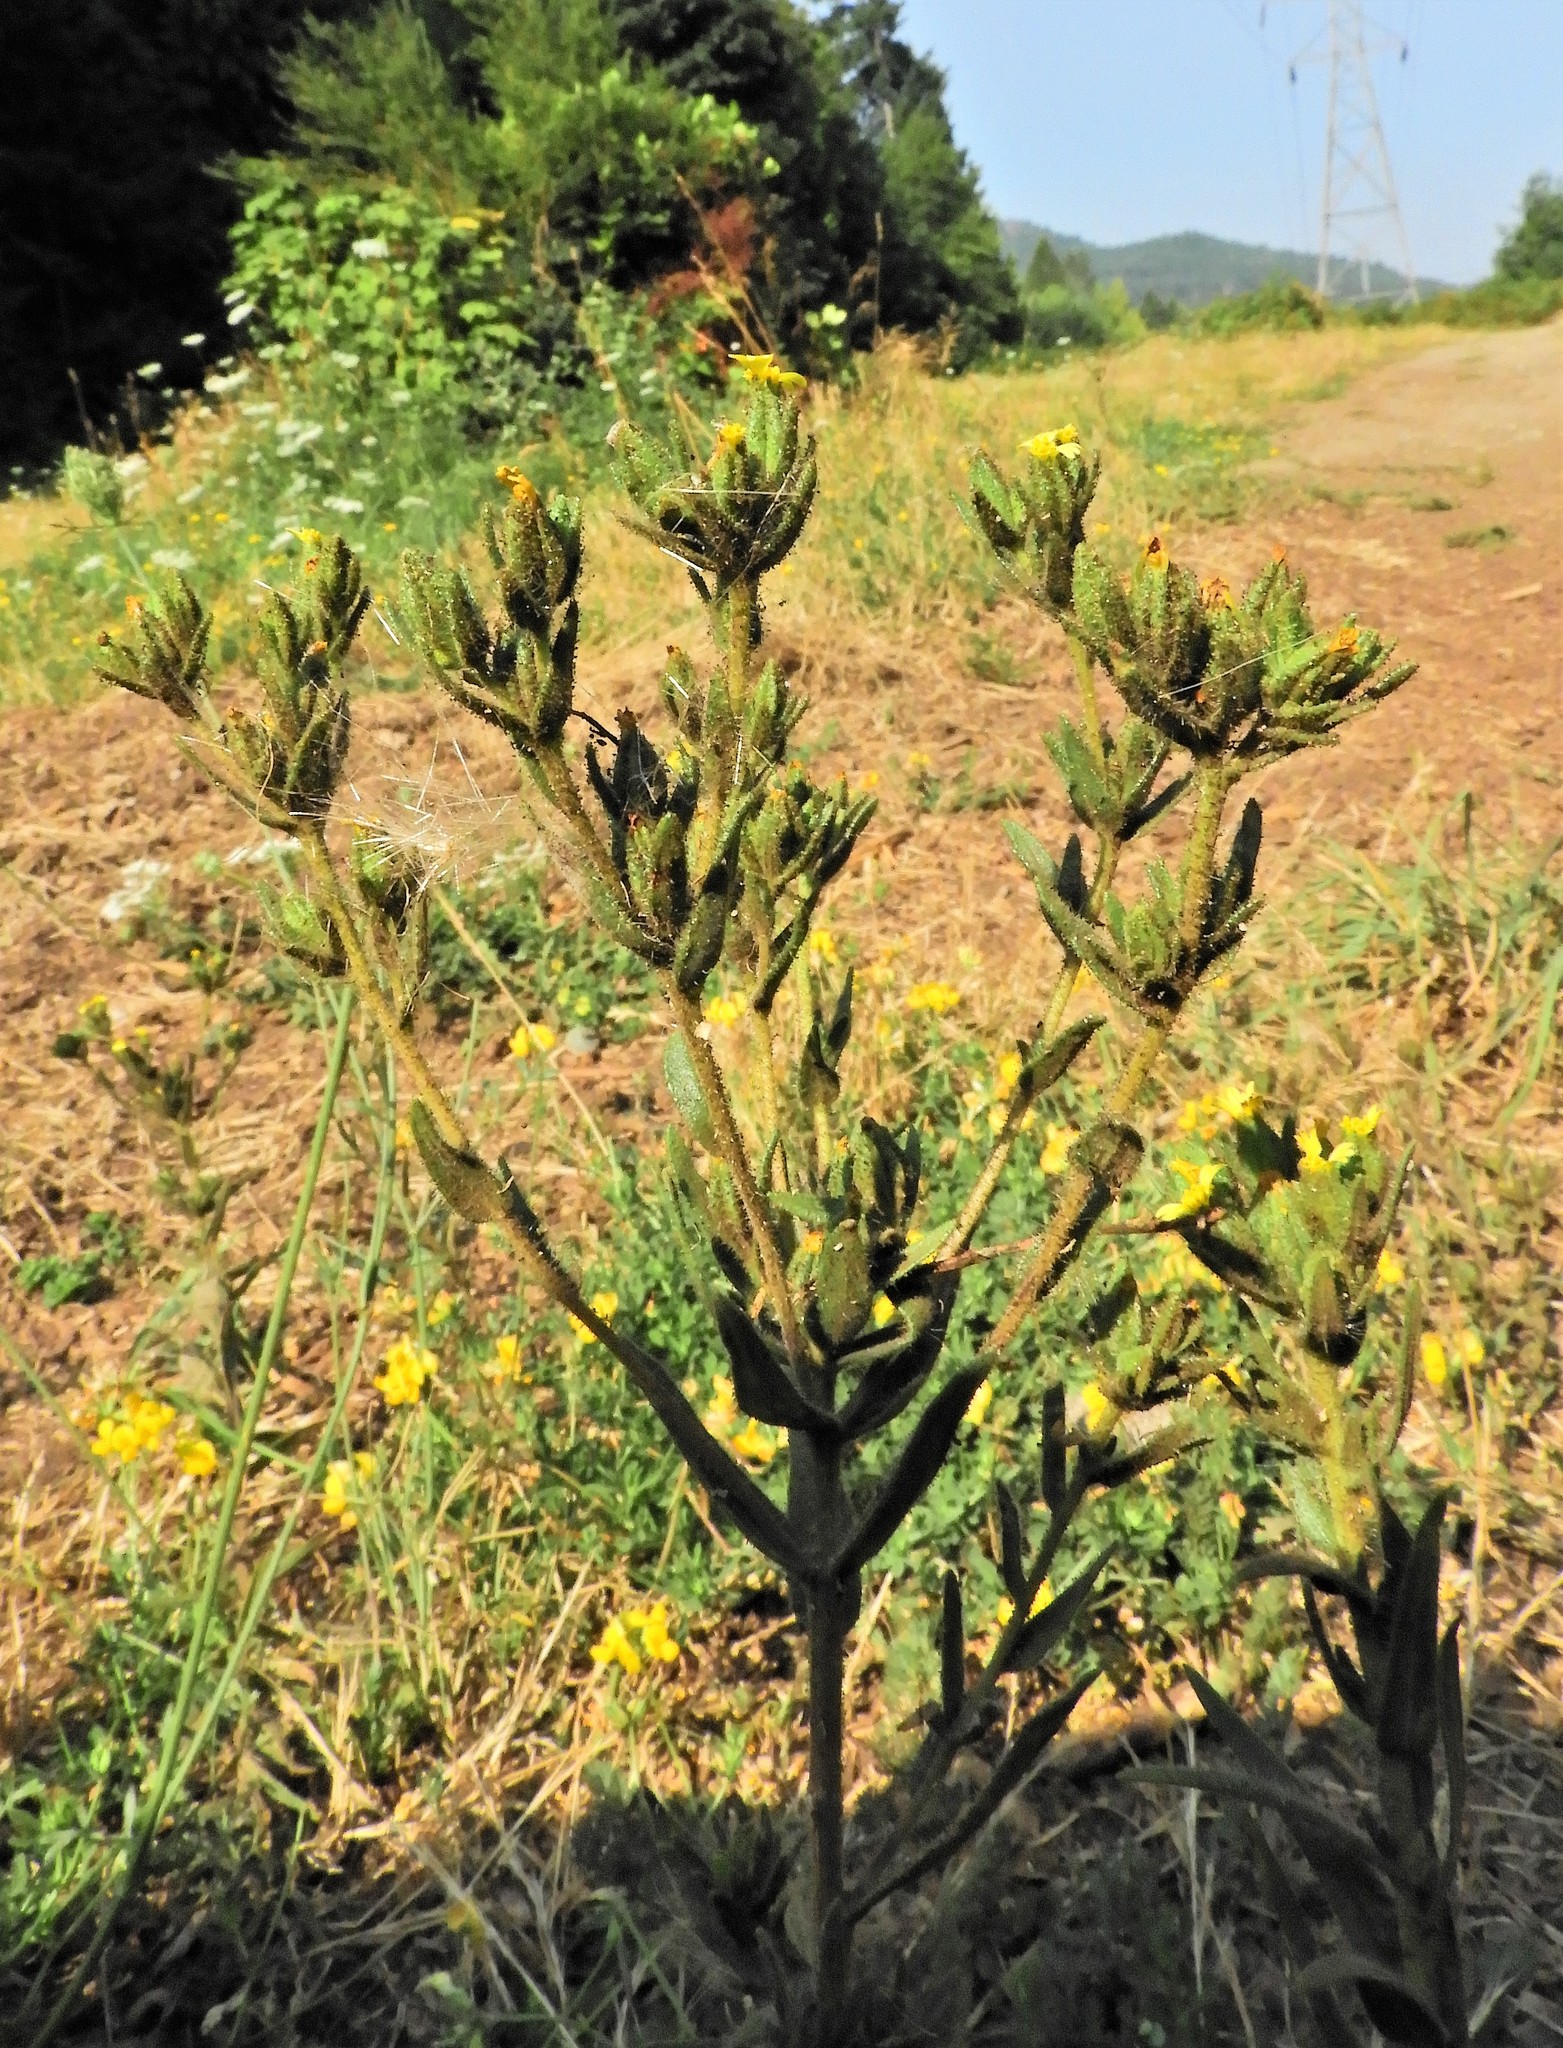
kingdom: Plantae
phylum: Tracheophyta
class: Magnoliopsida
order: Asterales
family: Asteraceae
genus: Madia
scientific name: Madia glomerata
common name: Mountain tarweed
